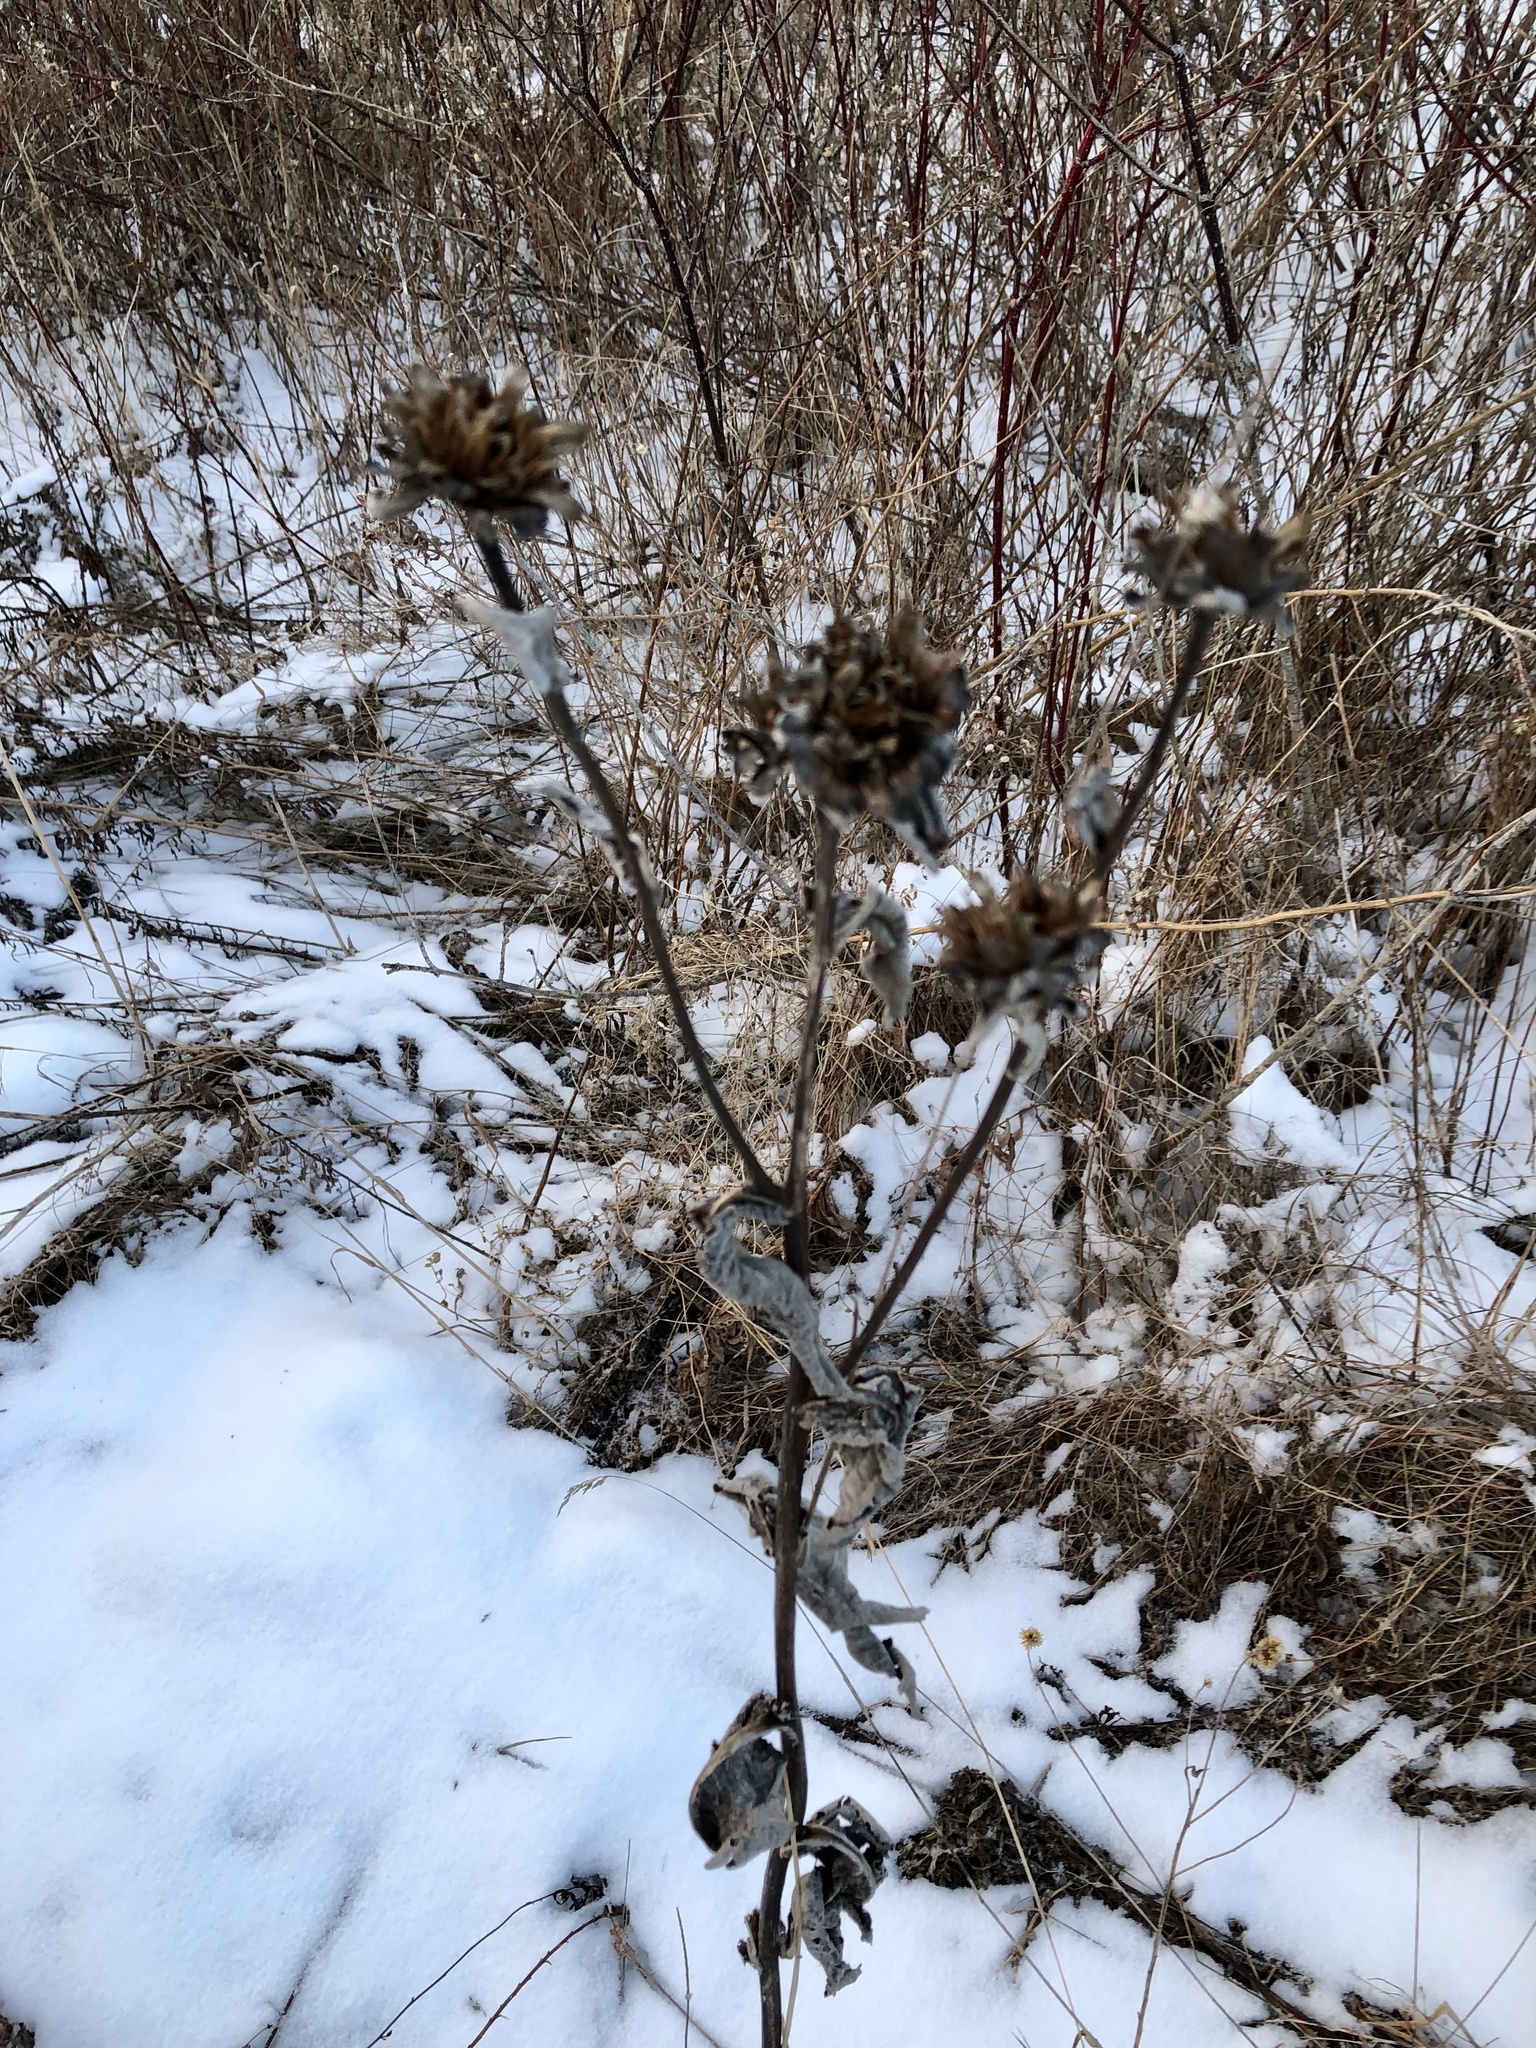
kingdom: Plantae
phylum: Tracheophyta
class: Magnoliopsida
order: Asterales
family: Asteraceae
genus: Inula
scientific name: Inula helenium
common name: Elecampane
